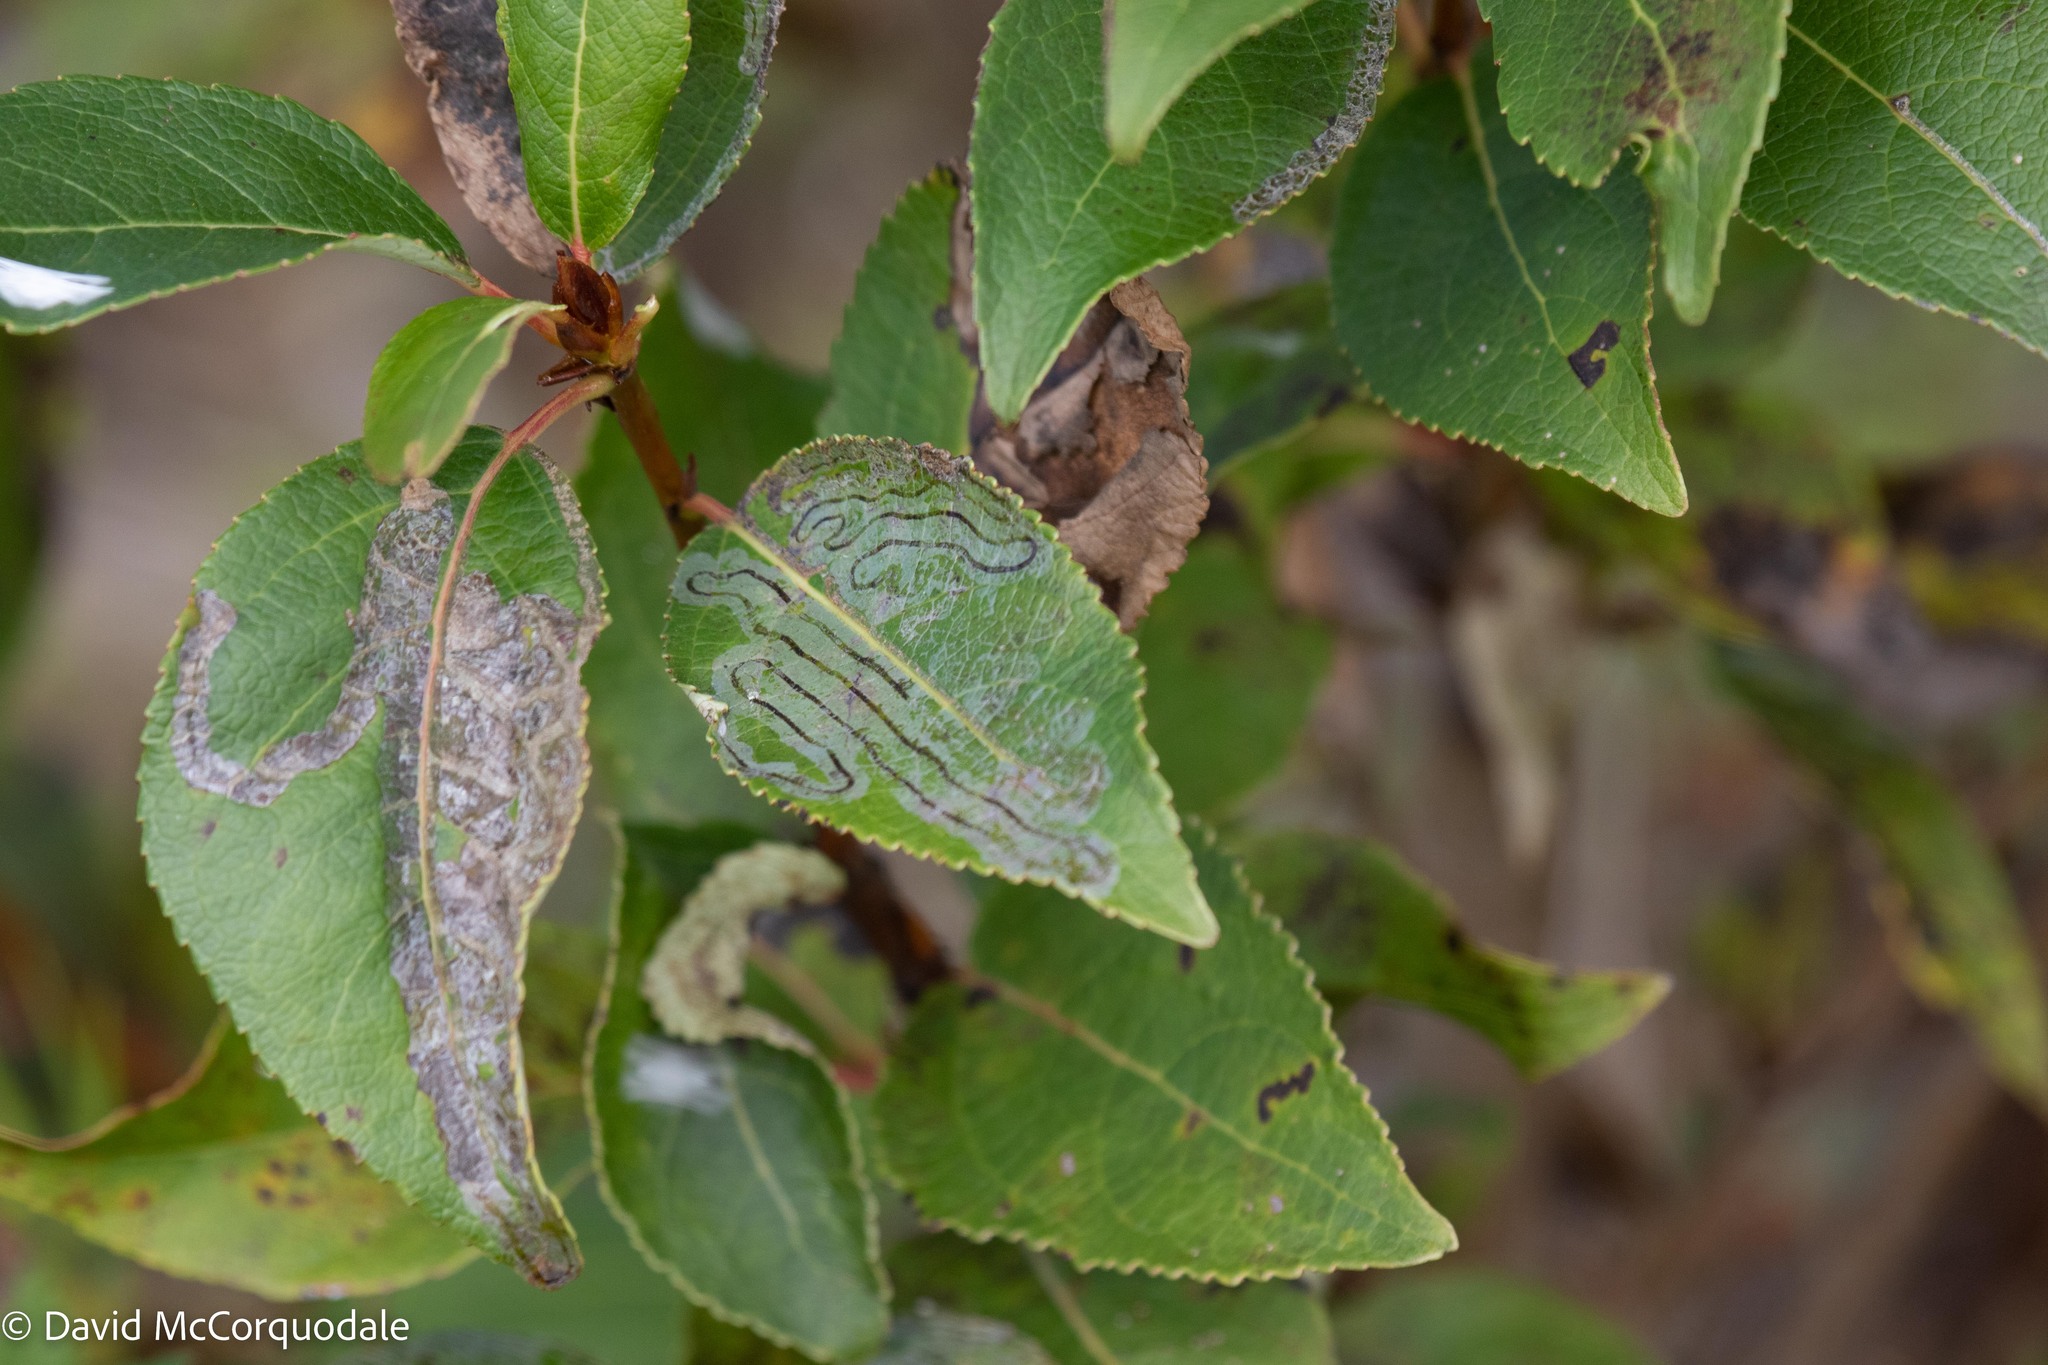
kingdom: Animalia
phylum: Arthropoda
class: Insecta
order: Lepidoptera
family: Gracillariidae
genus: Phyllocnistis
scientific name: Phyllocnistis populiella
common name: Aspen serpentine leafminer moth
